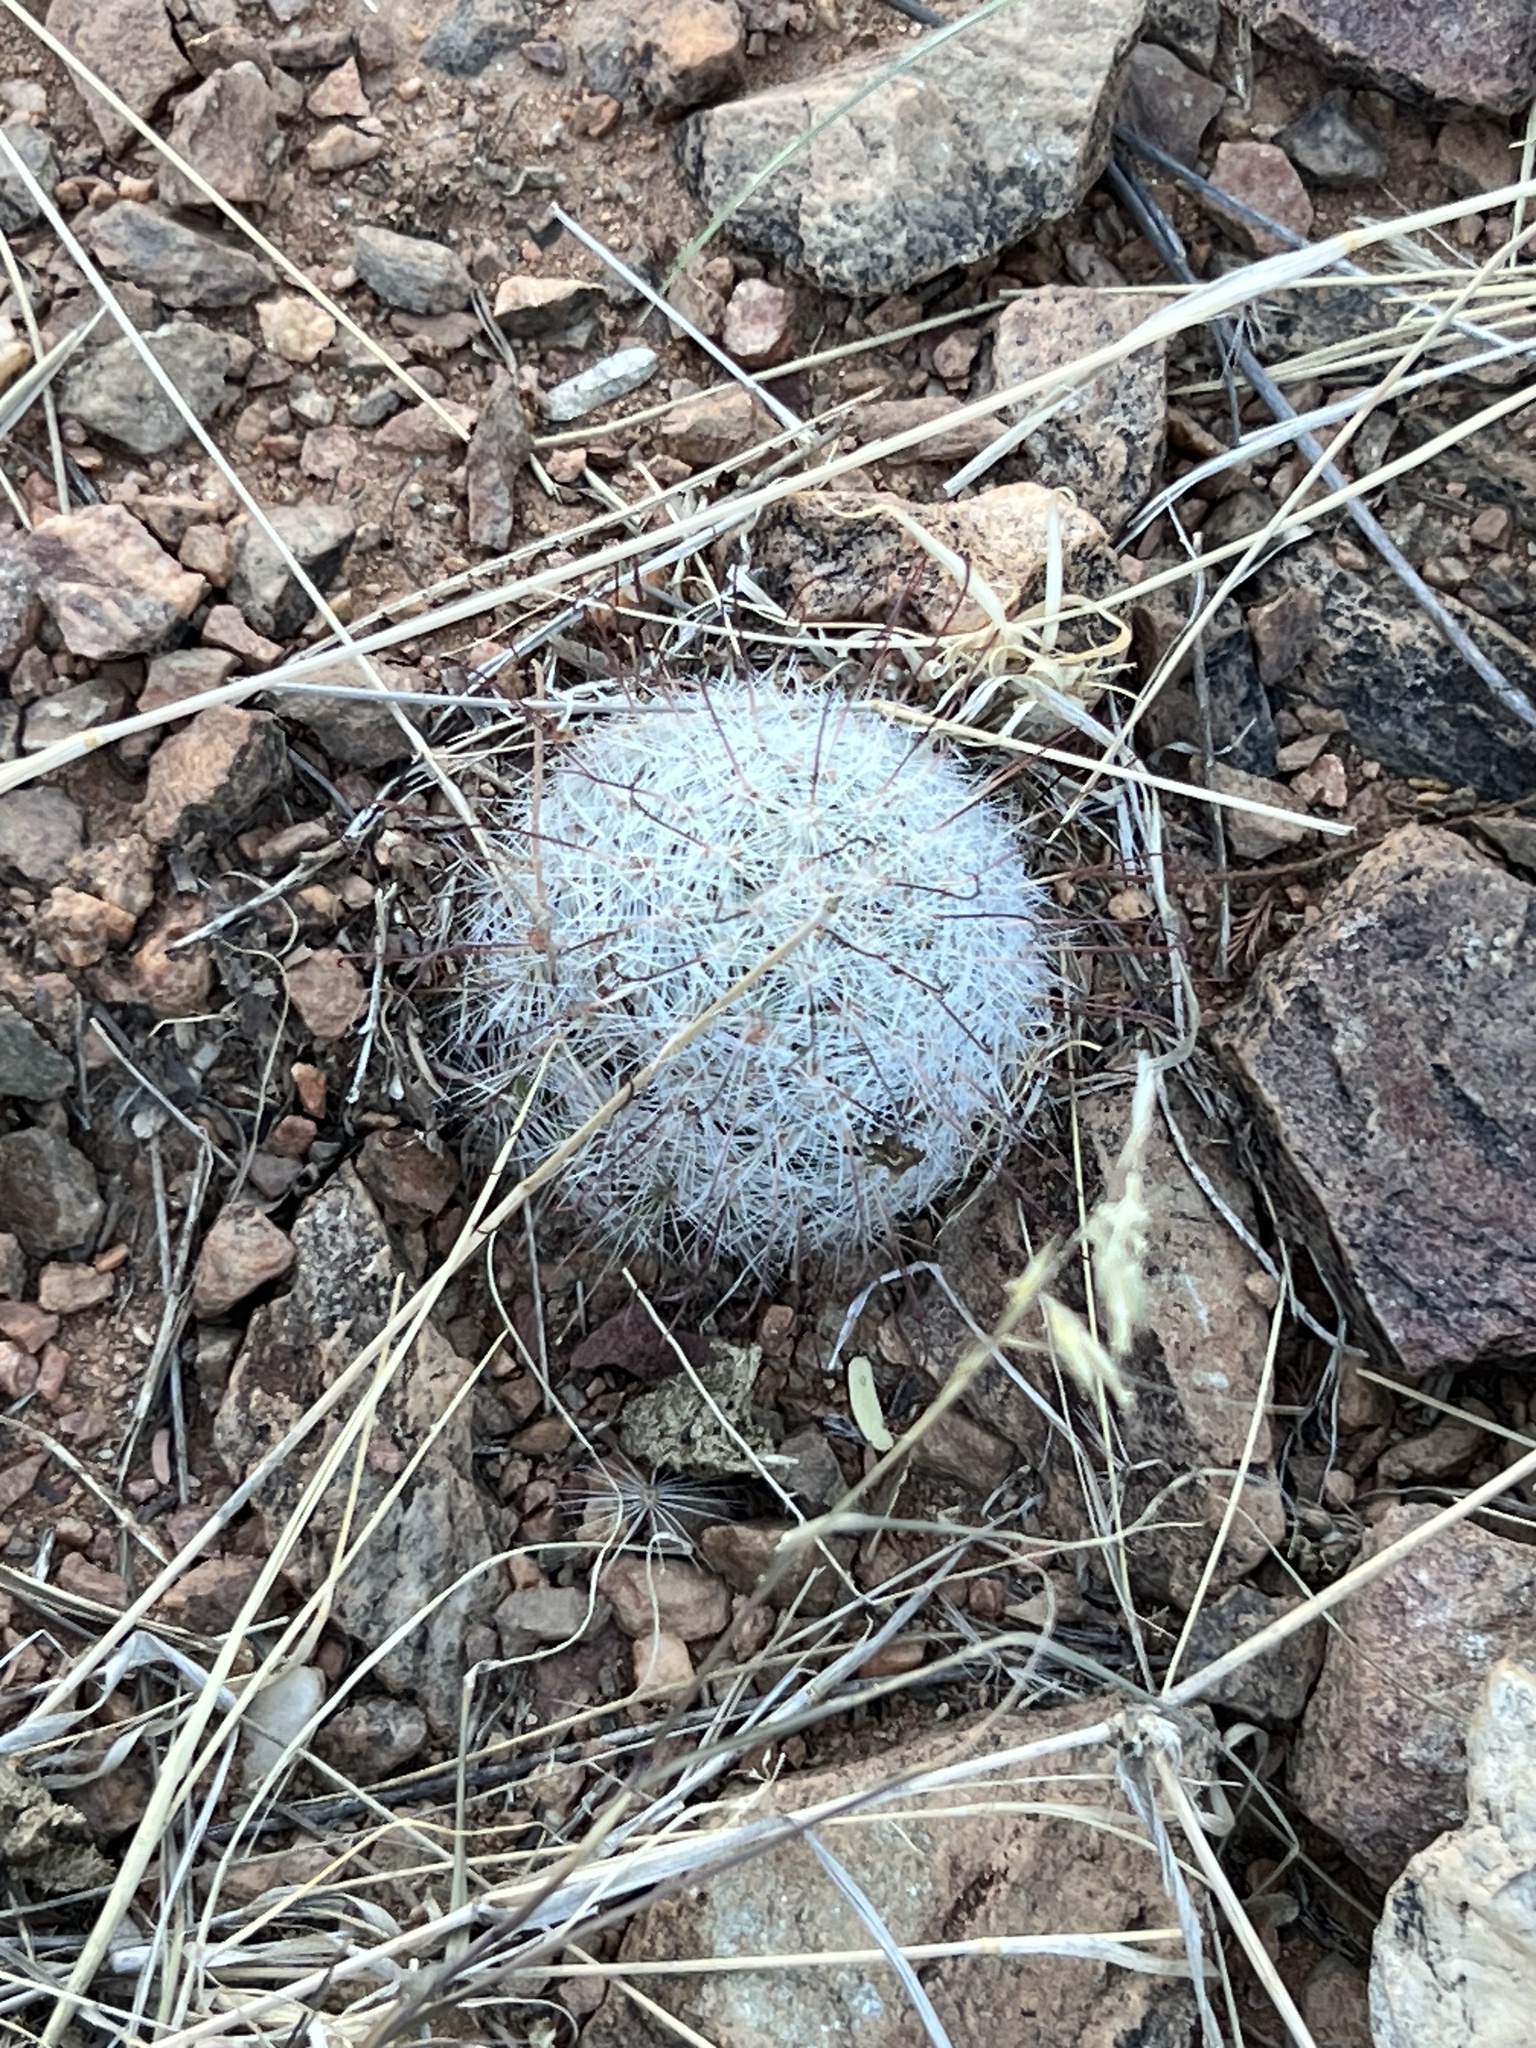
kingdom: Plantae
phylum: Tracheophyta
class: Magnoliopsida
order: Caryophyllales
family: Cactaceae
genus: Cochemiea
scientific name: Cochemiea grahamii
